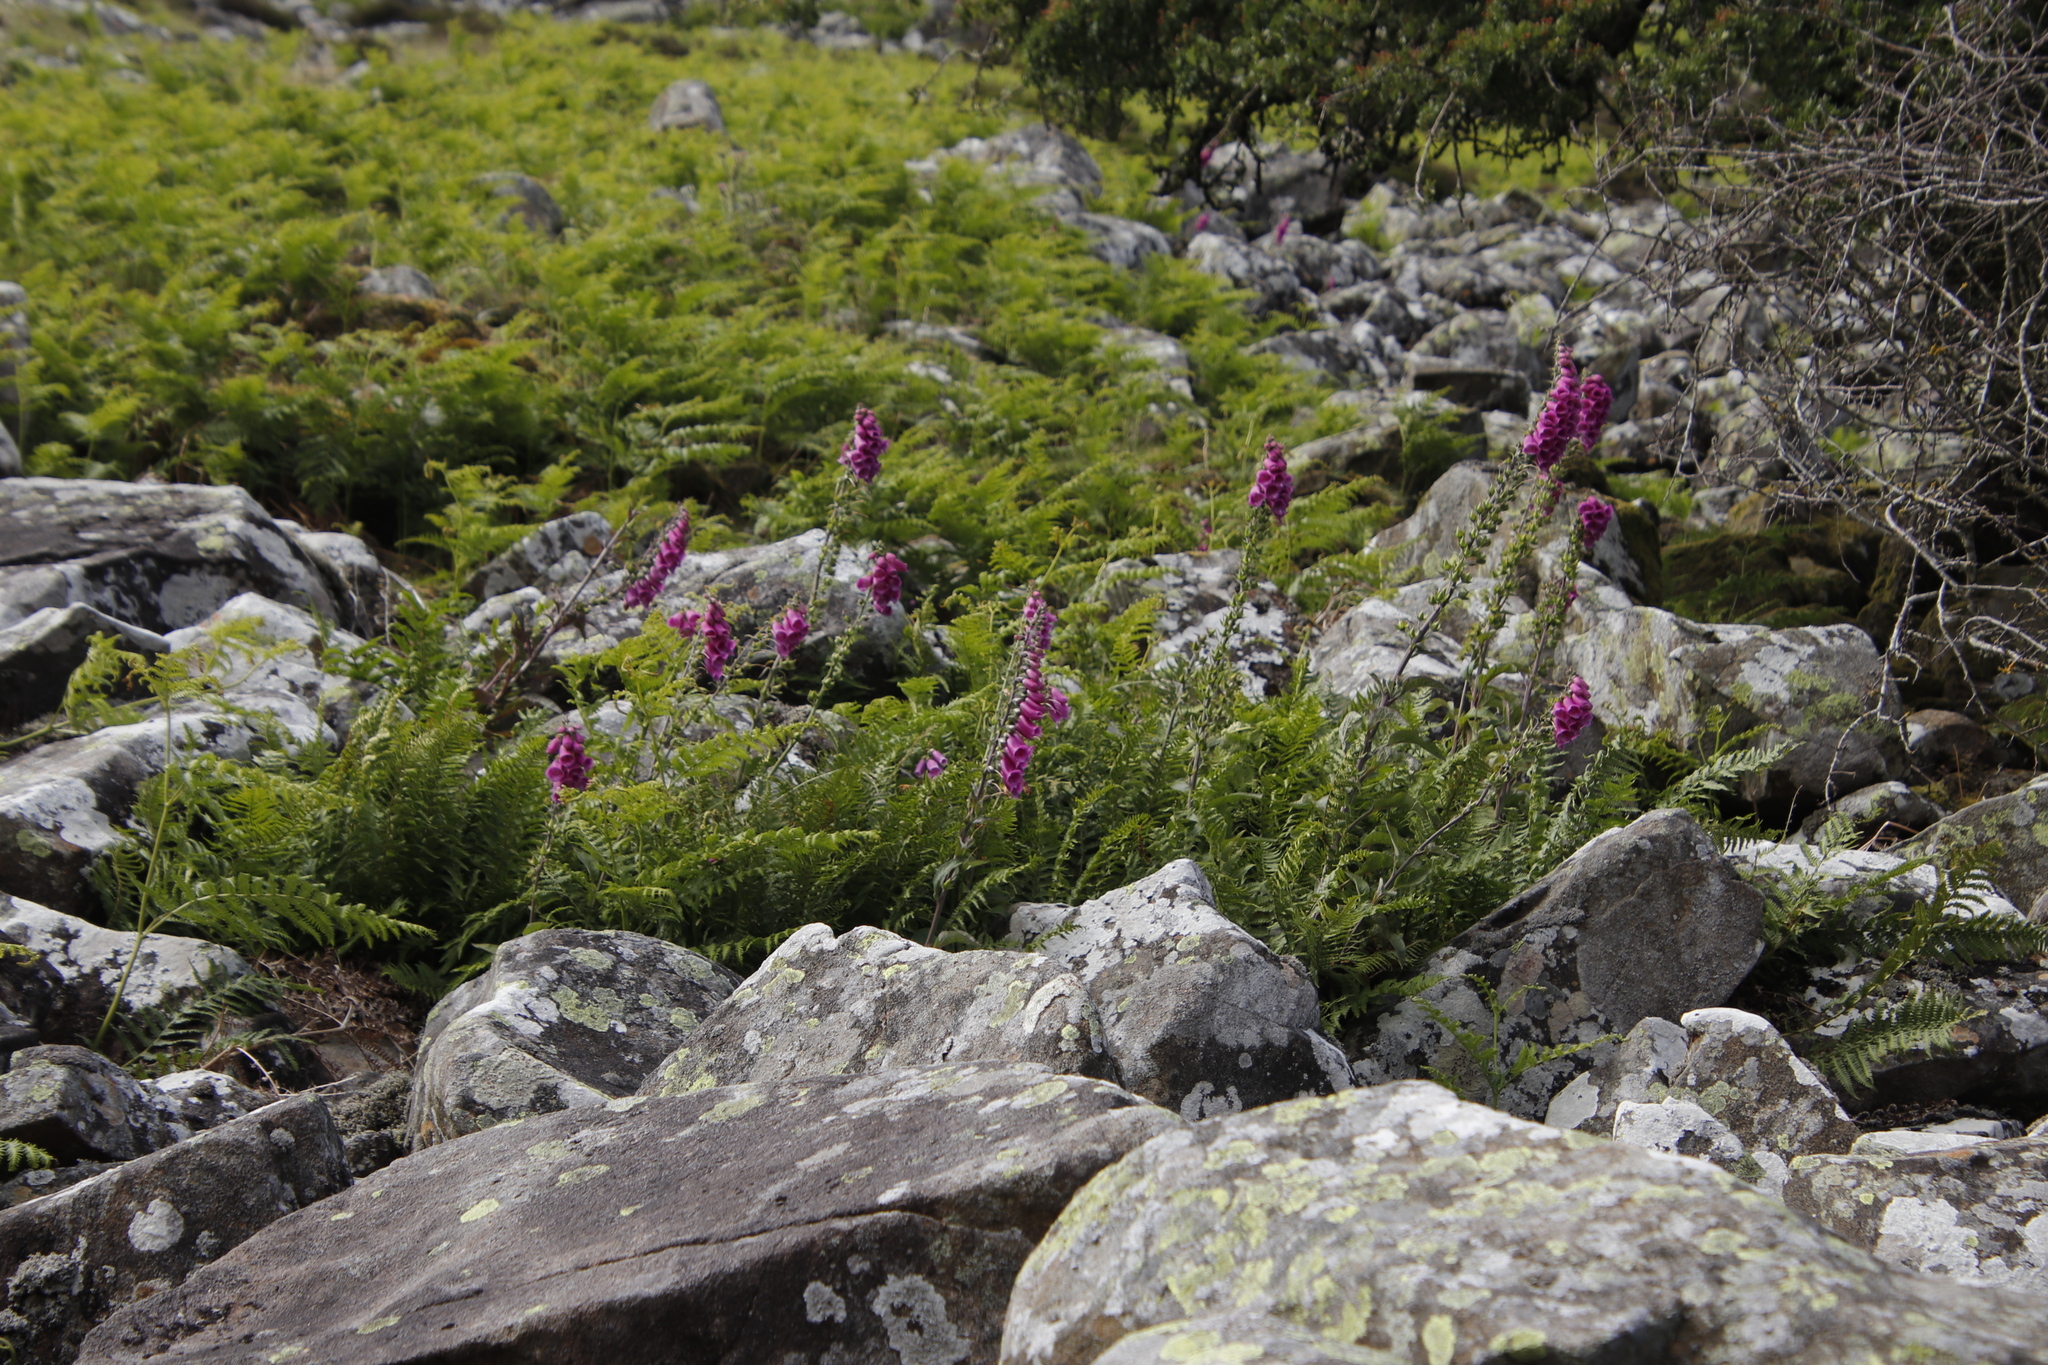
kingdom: Plantae
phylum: Tracheophyta
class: Magnoliopsida
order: Lamiales
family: Plantaginaceae
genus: Digitalis
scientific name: Digitalis purpurea
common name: Foxglove
